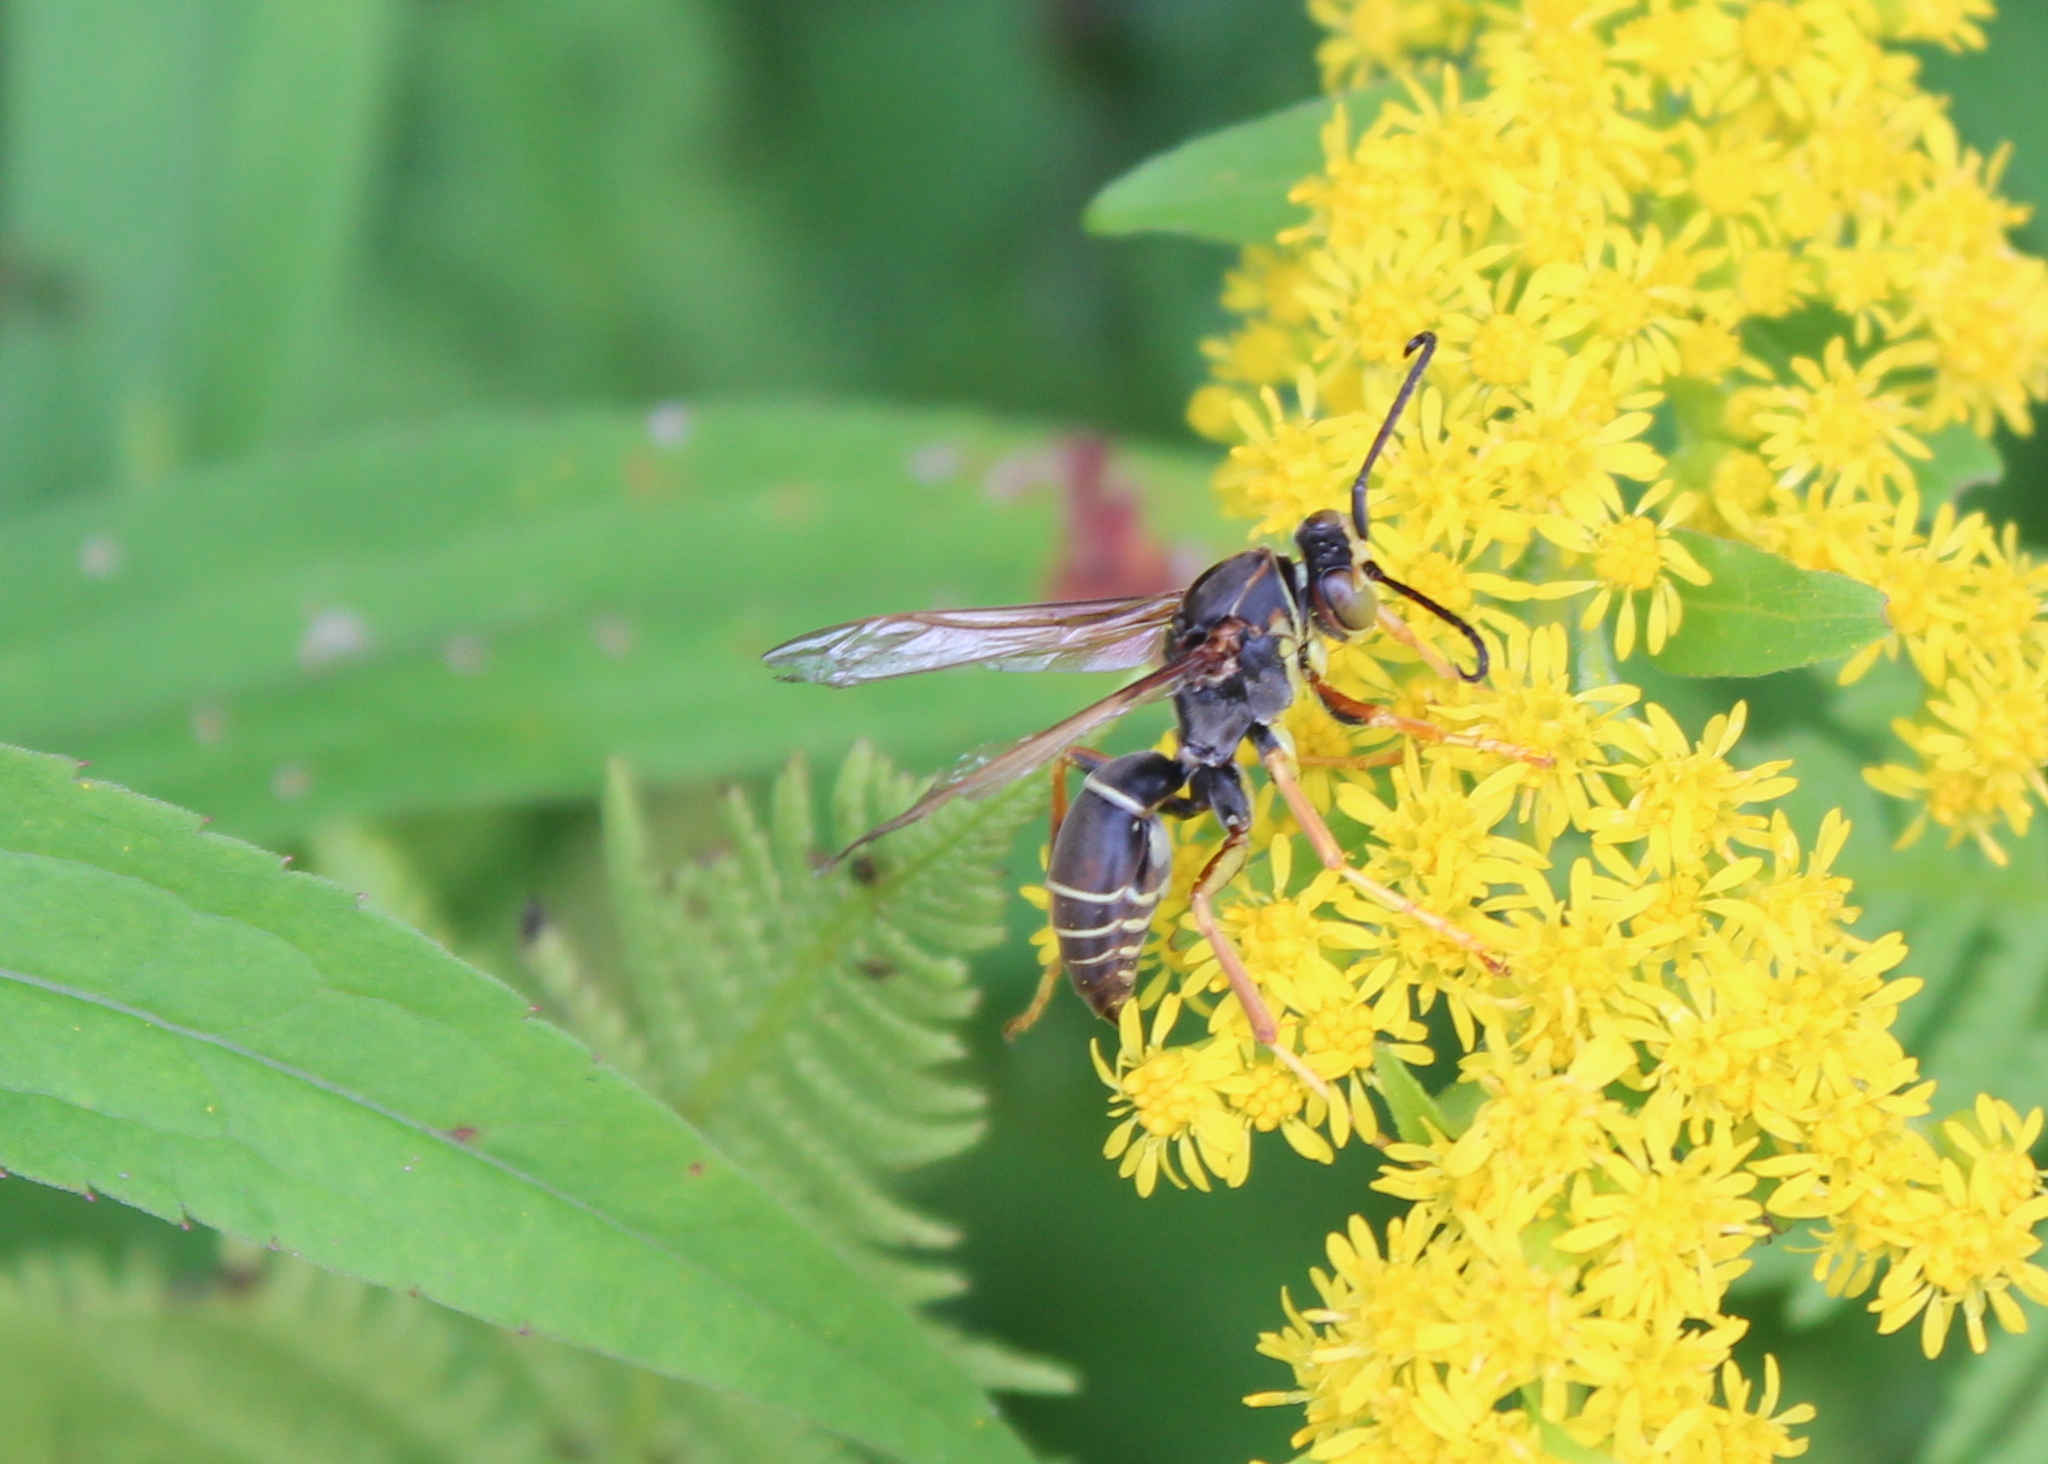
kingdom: Animalia
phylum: Arthropoda
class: Insecta
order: Hymenoptera
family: Eumenidae
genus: Polistes
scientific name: Polistes fuscatus
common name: Dark paper wasp
